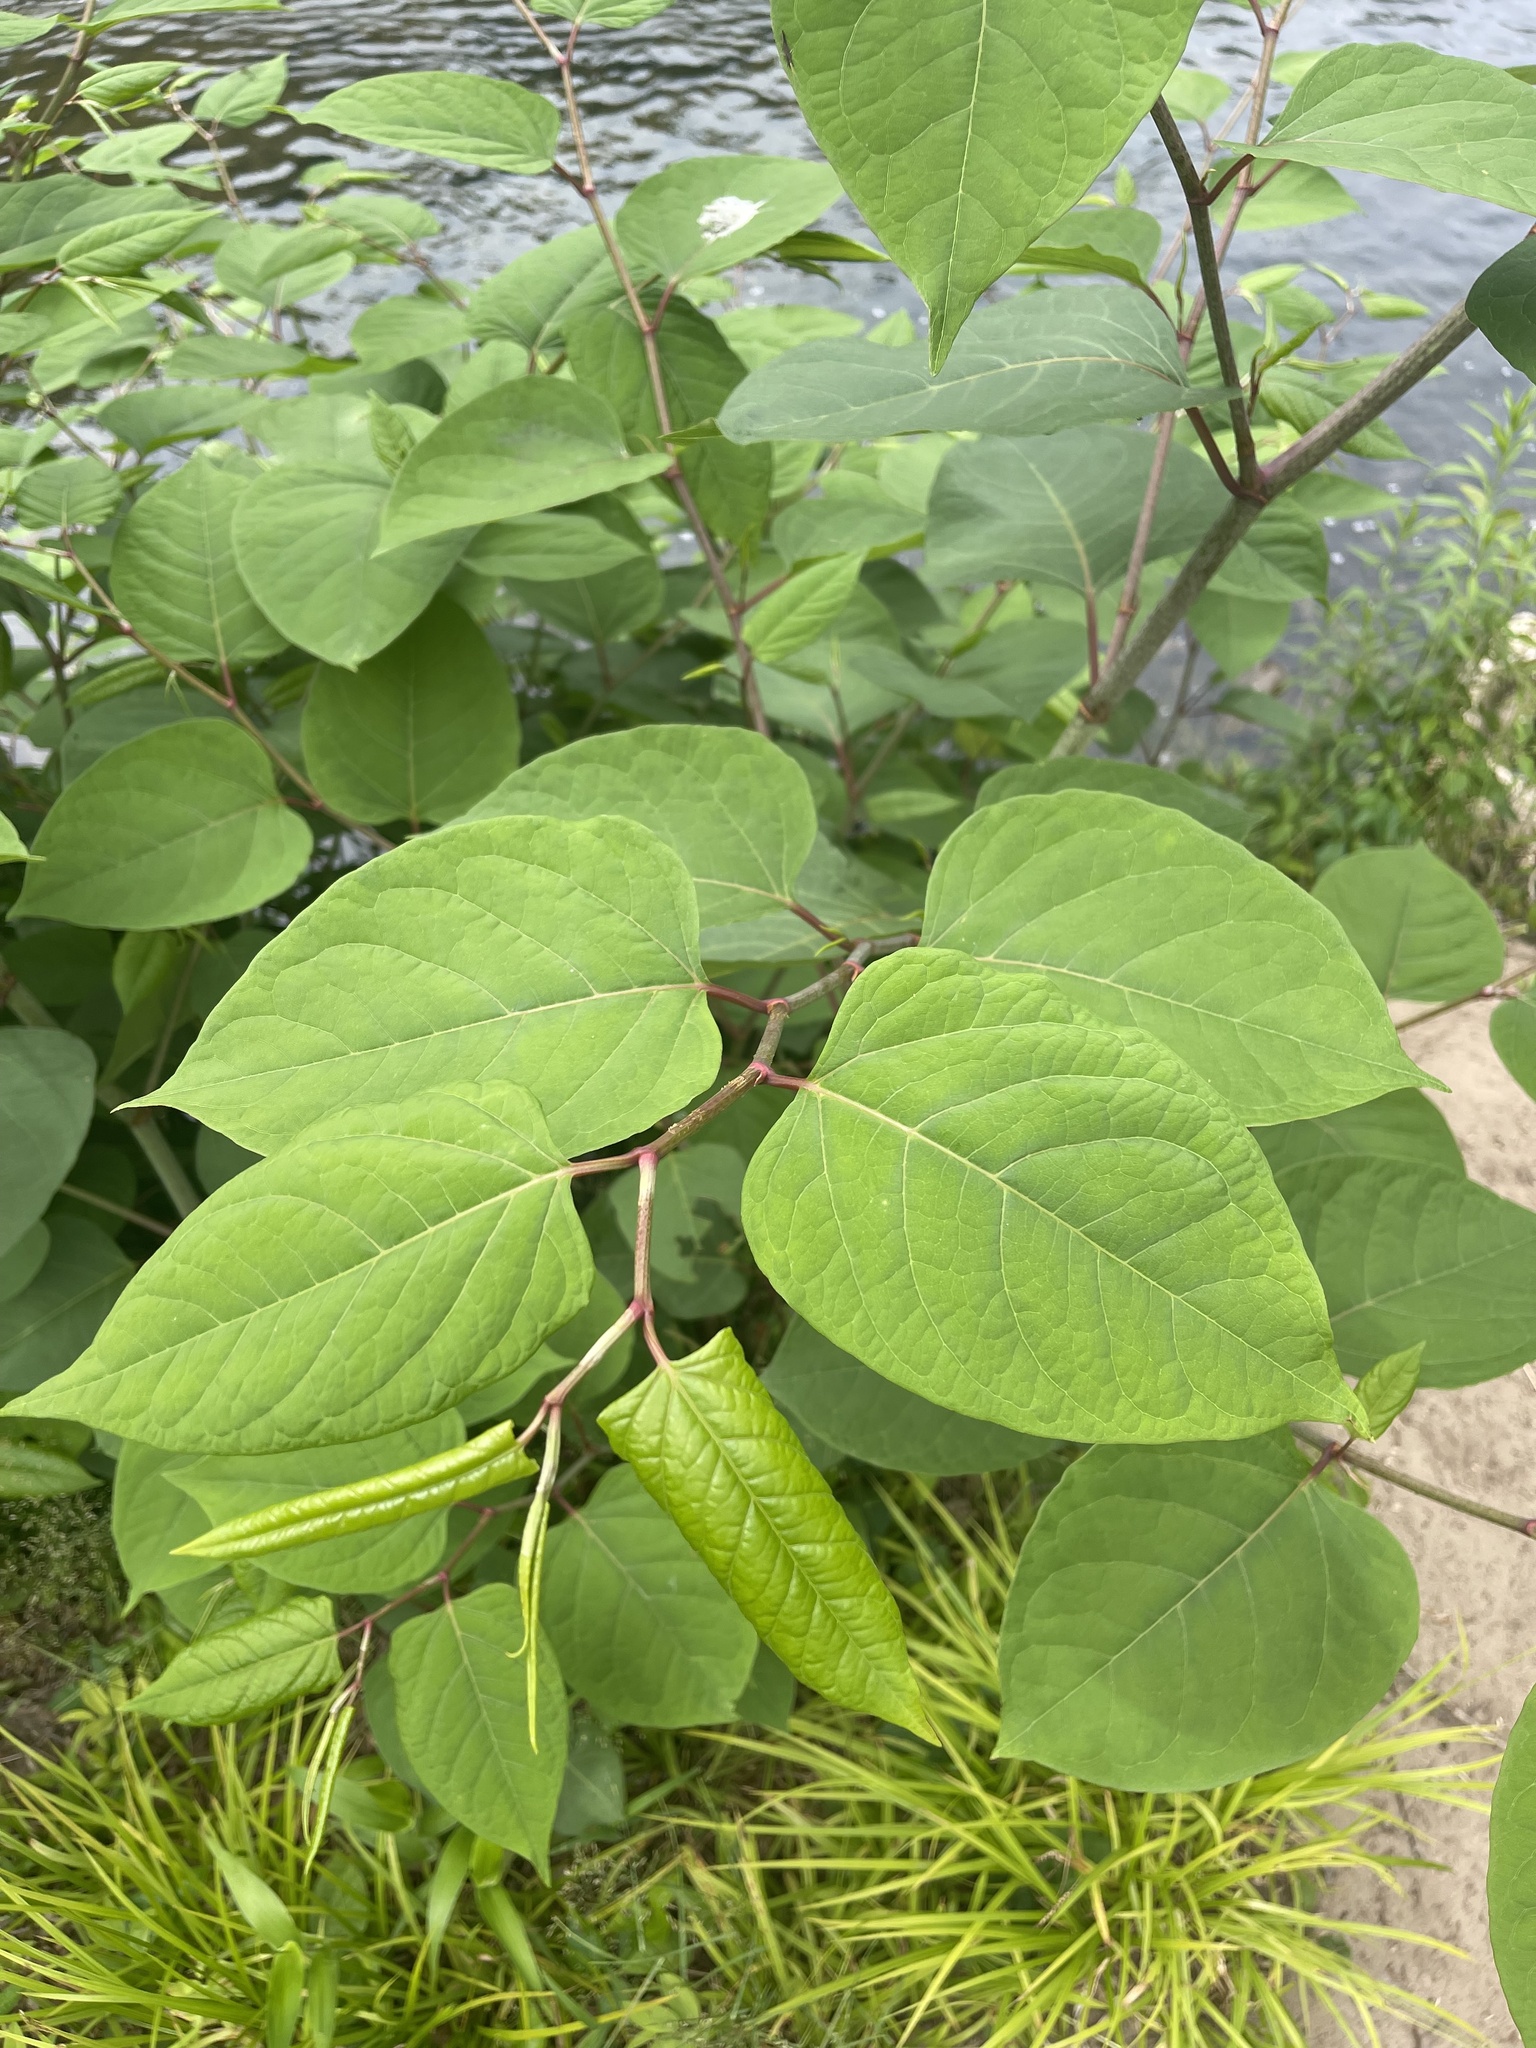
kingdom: Plantae
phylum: Tracheophyta
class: Magnoliopsida
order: Caryophyllales
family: Polygonaceae
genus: Reynoutria
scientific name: Reynoutria japonica
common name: Japanese knotweed
